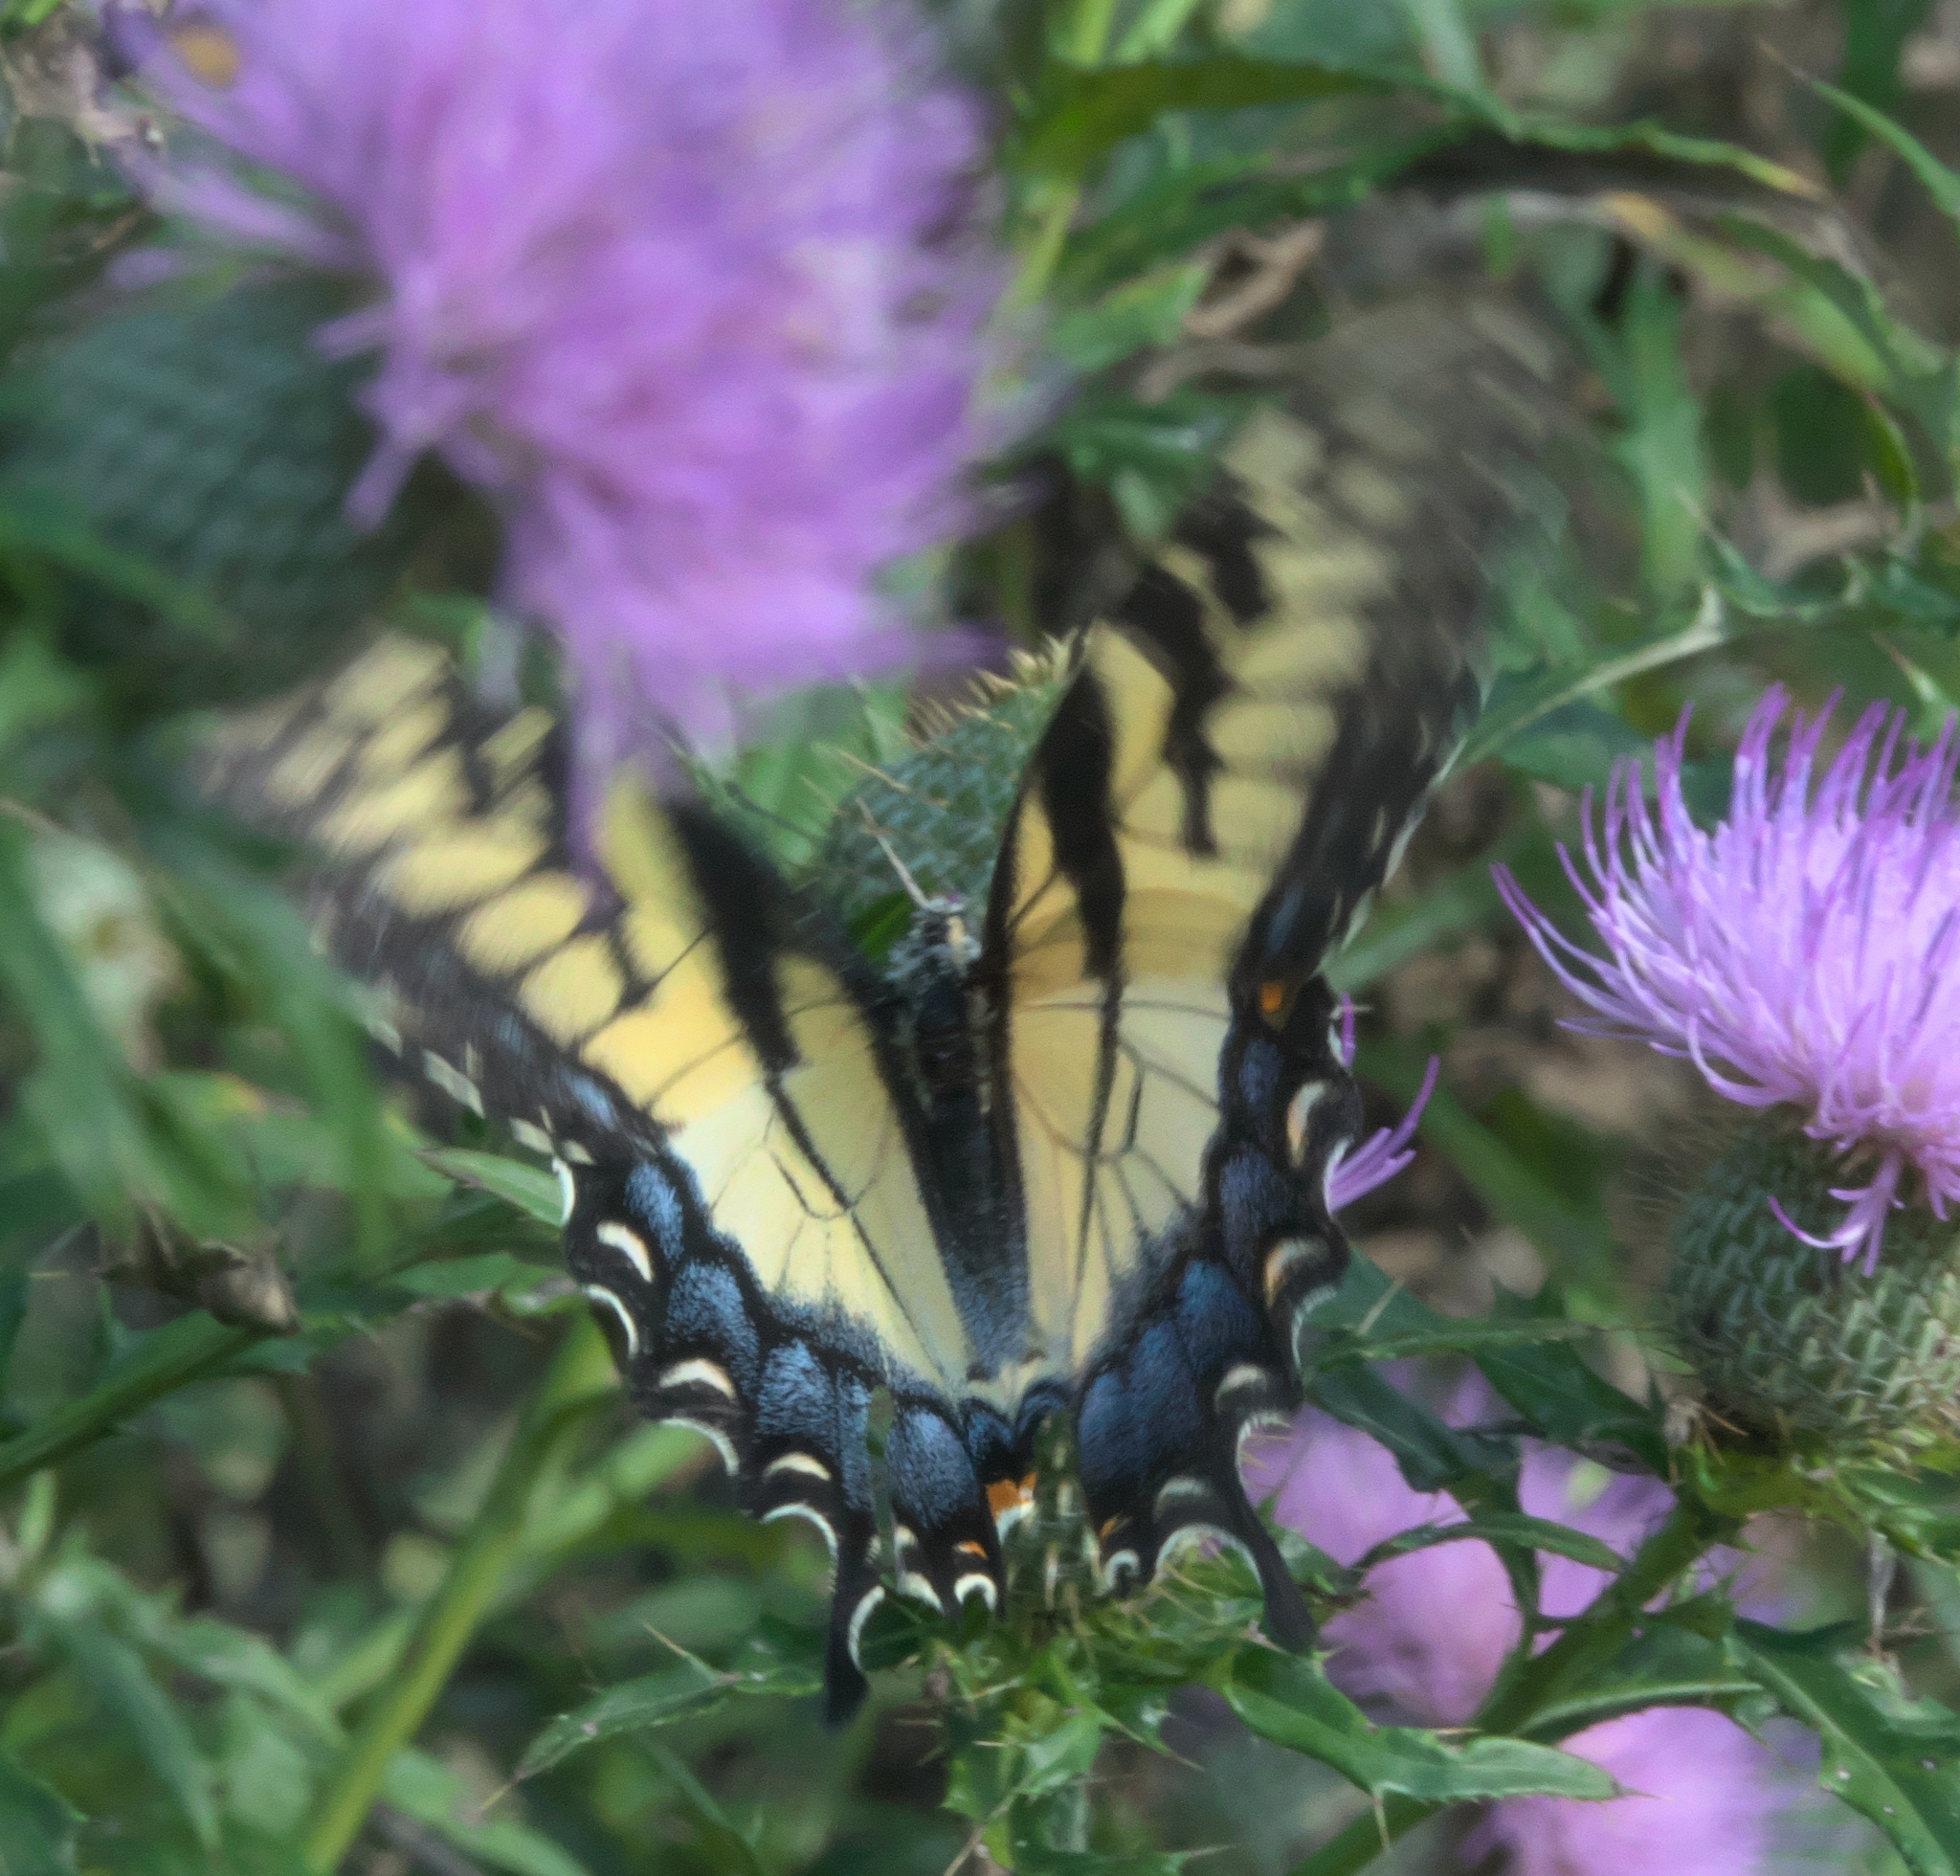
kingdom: Animalia
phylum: Arthropoda
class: Insecta
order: Lepidoptera
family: Papilionidae
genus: Papilio
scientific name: Papilio glaucus
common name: Tiger swallowtail
